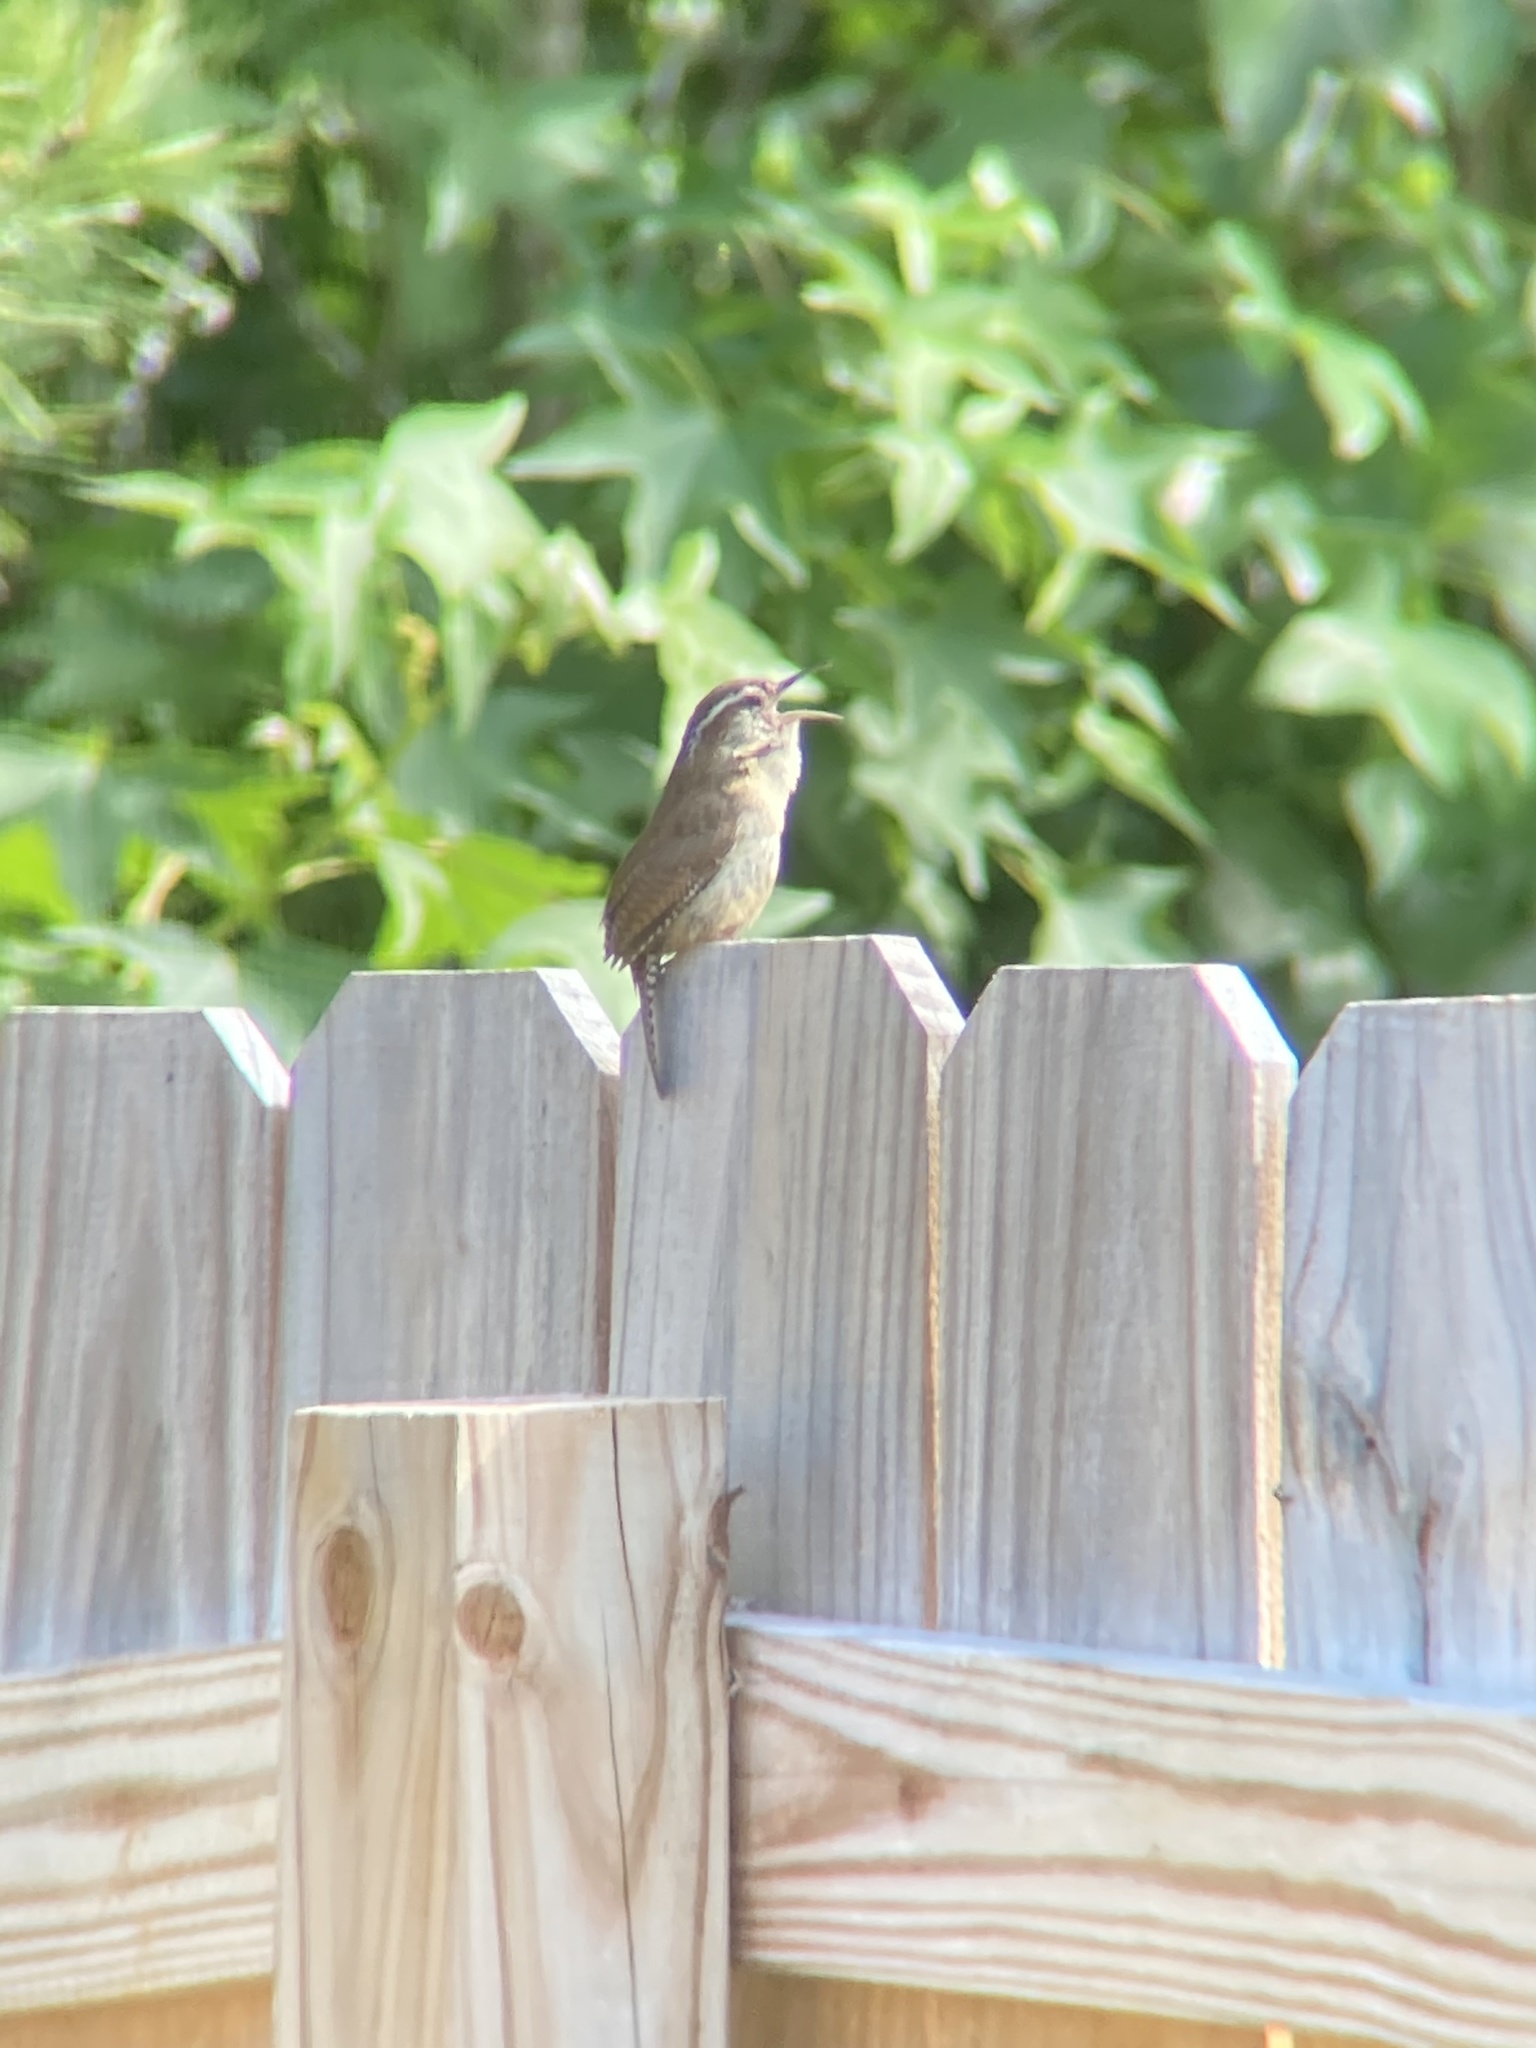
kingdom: Animalia
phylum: Chordata
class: Aves
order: Passeriformes
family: Troglodytidae
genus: Thryothorus
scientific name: Thryothorus ludovicianus
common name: Carolina wren
